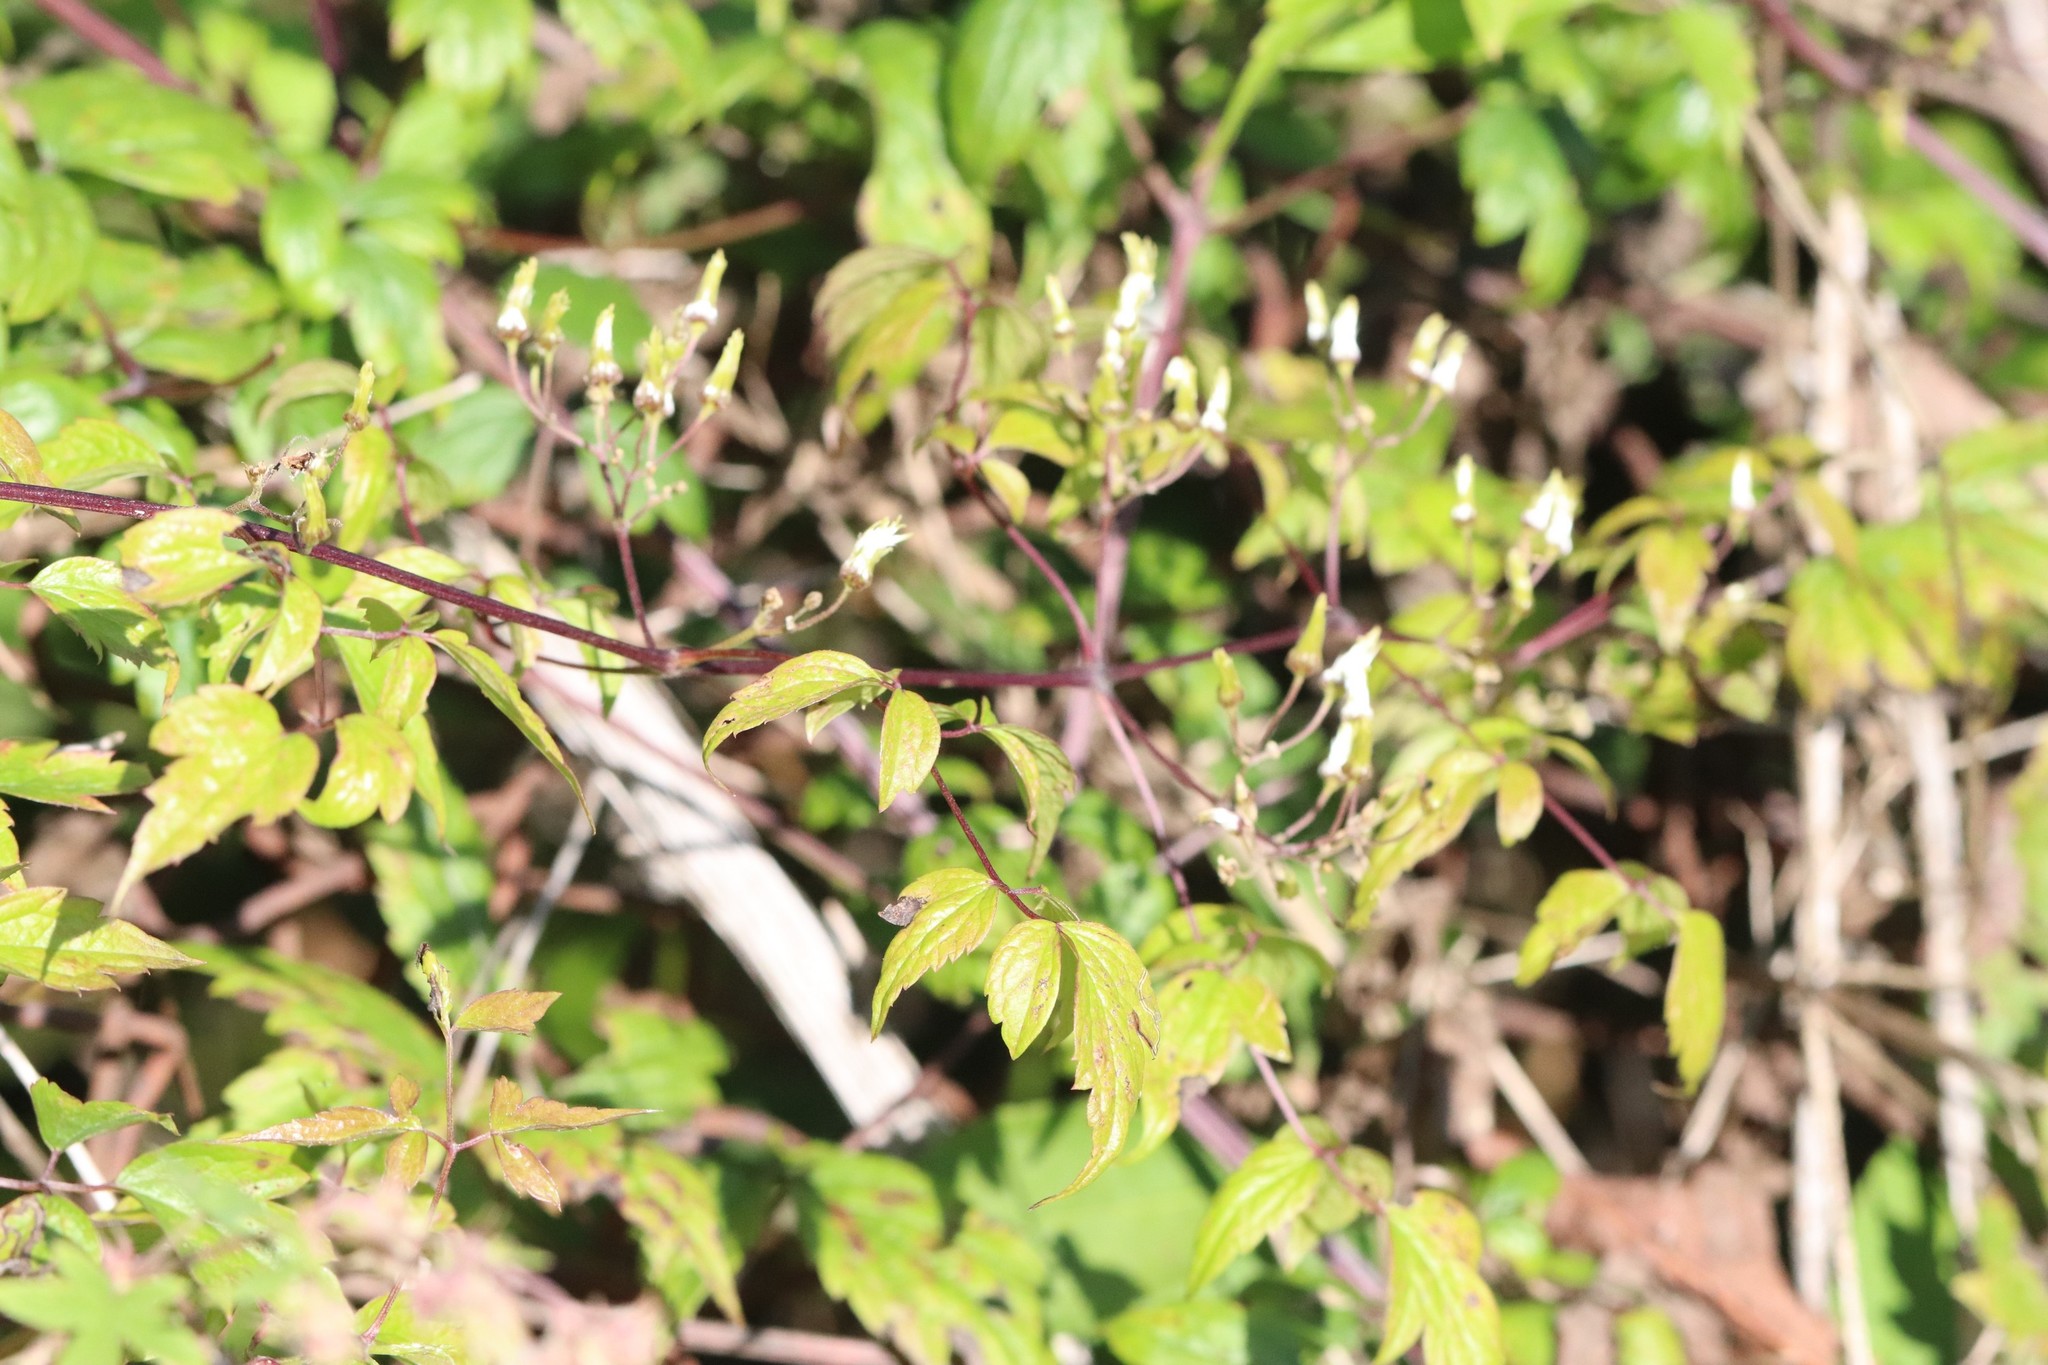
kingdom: Plantae
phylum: Tracheophyta
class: Magnoliopsida
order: Ranunculales
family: Ranunculaceae
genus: Clematis
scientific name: Clematis brevicaudata
